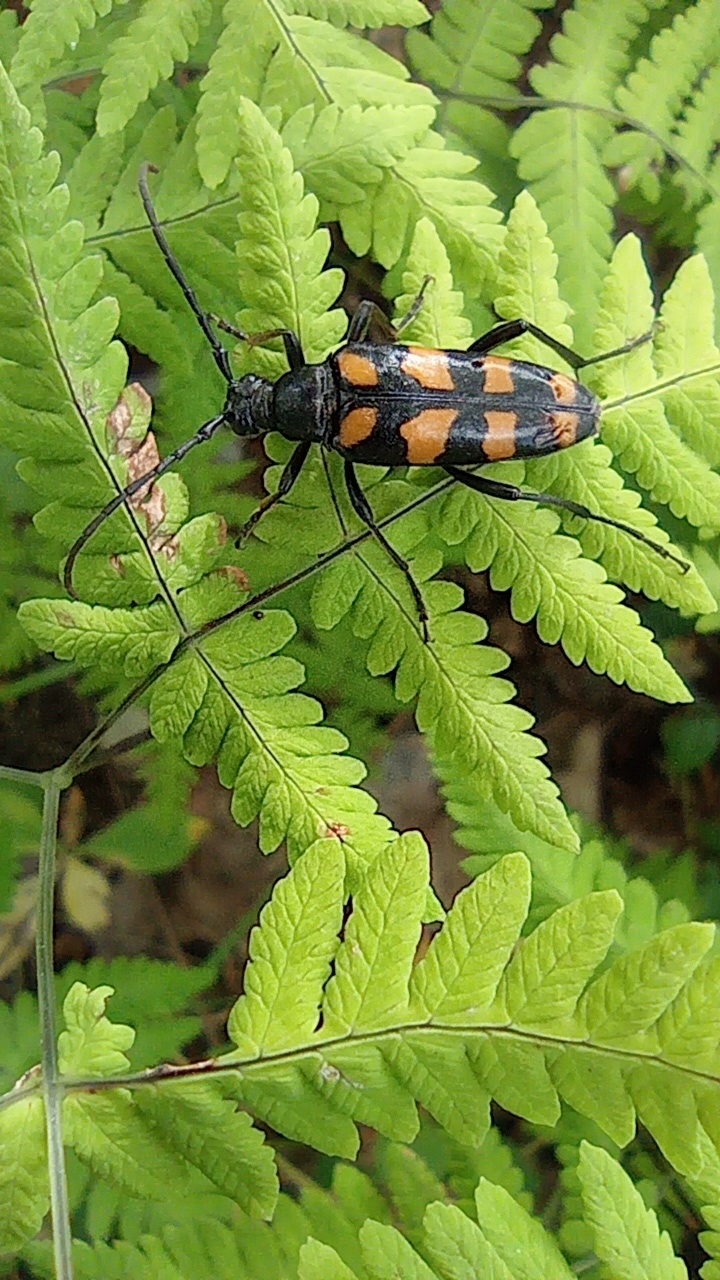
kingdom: Animalia
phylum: Arthropoda
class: Insecta
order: Coleoptera
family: Cerambycidae
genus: Leptura
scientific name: Leptura quadrifasciata
